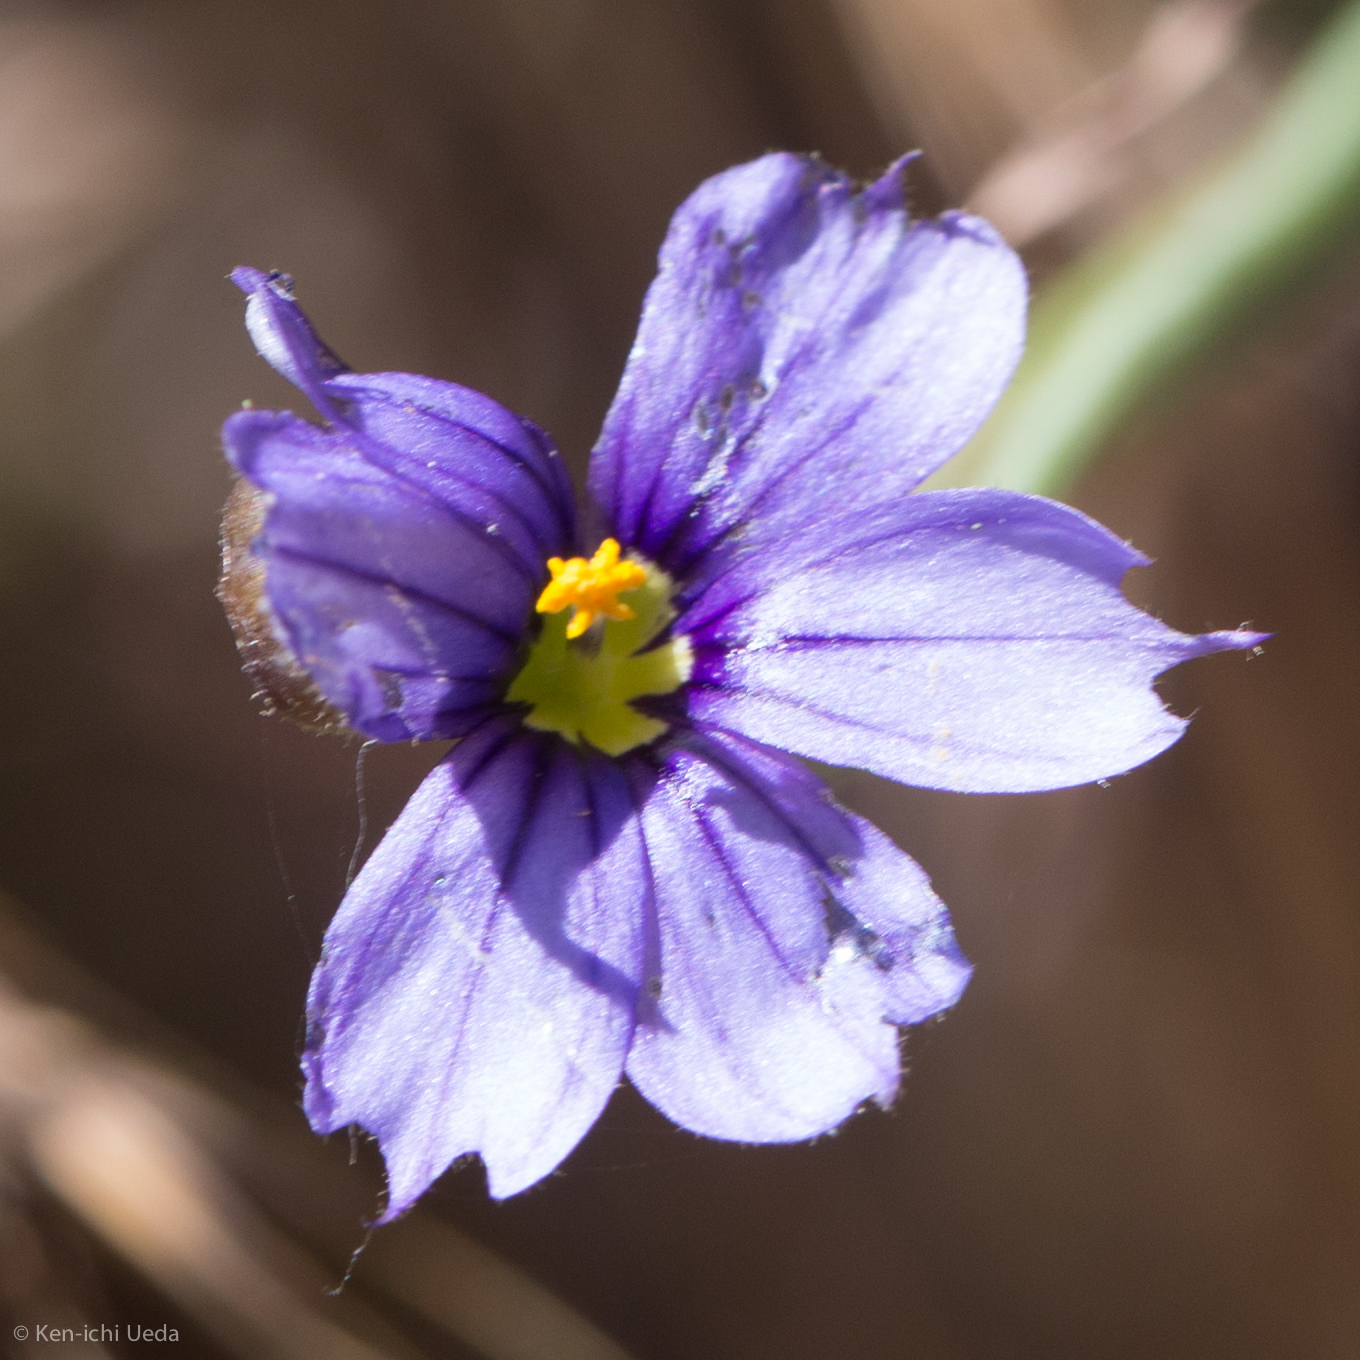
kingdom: Plantae
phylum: Tracheophyta
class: Liliopsida
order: Asparagales
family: Iridaceae
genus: Sisyrinchium
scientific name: Sisyrinchium bellum
